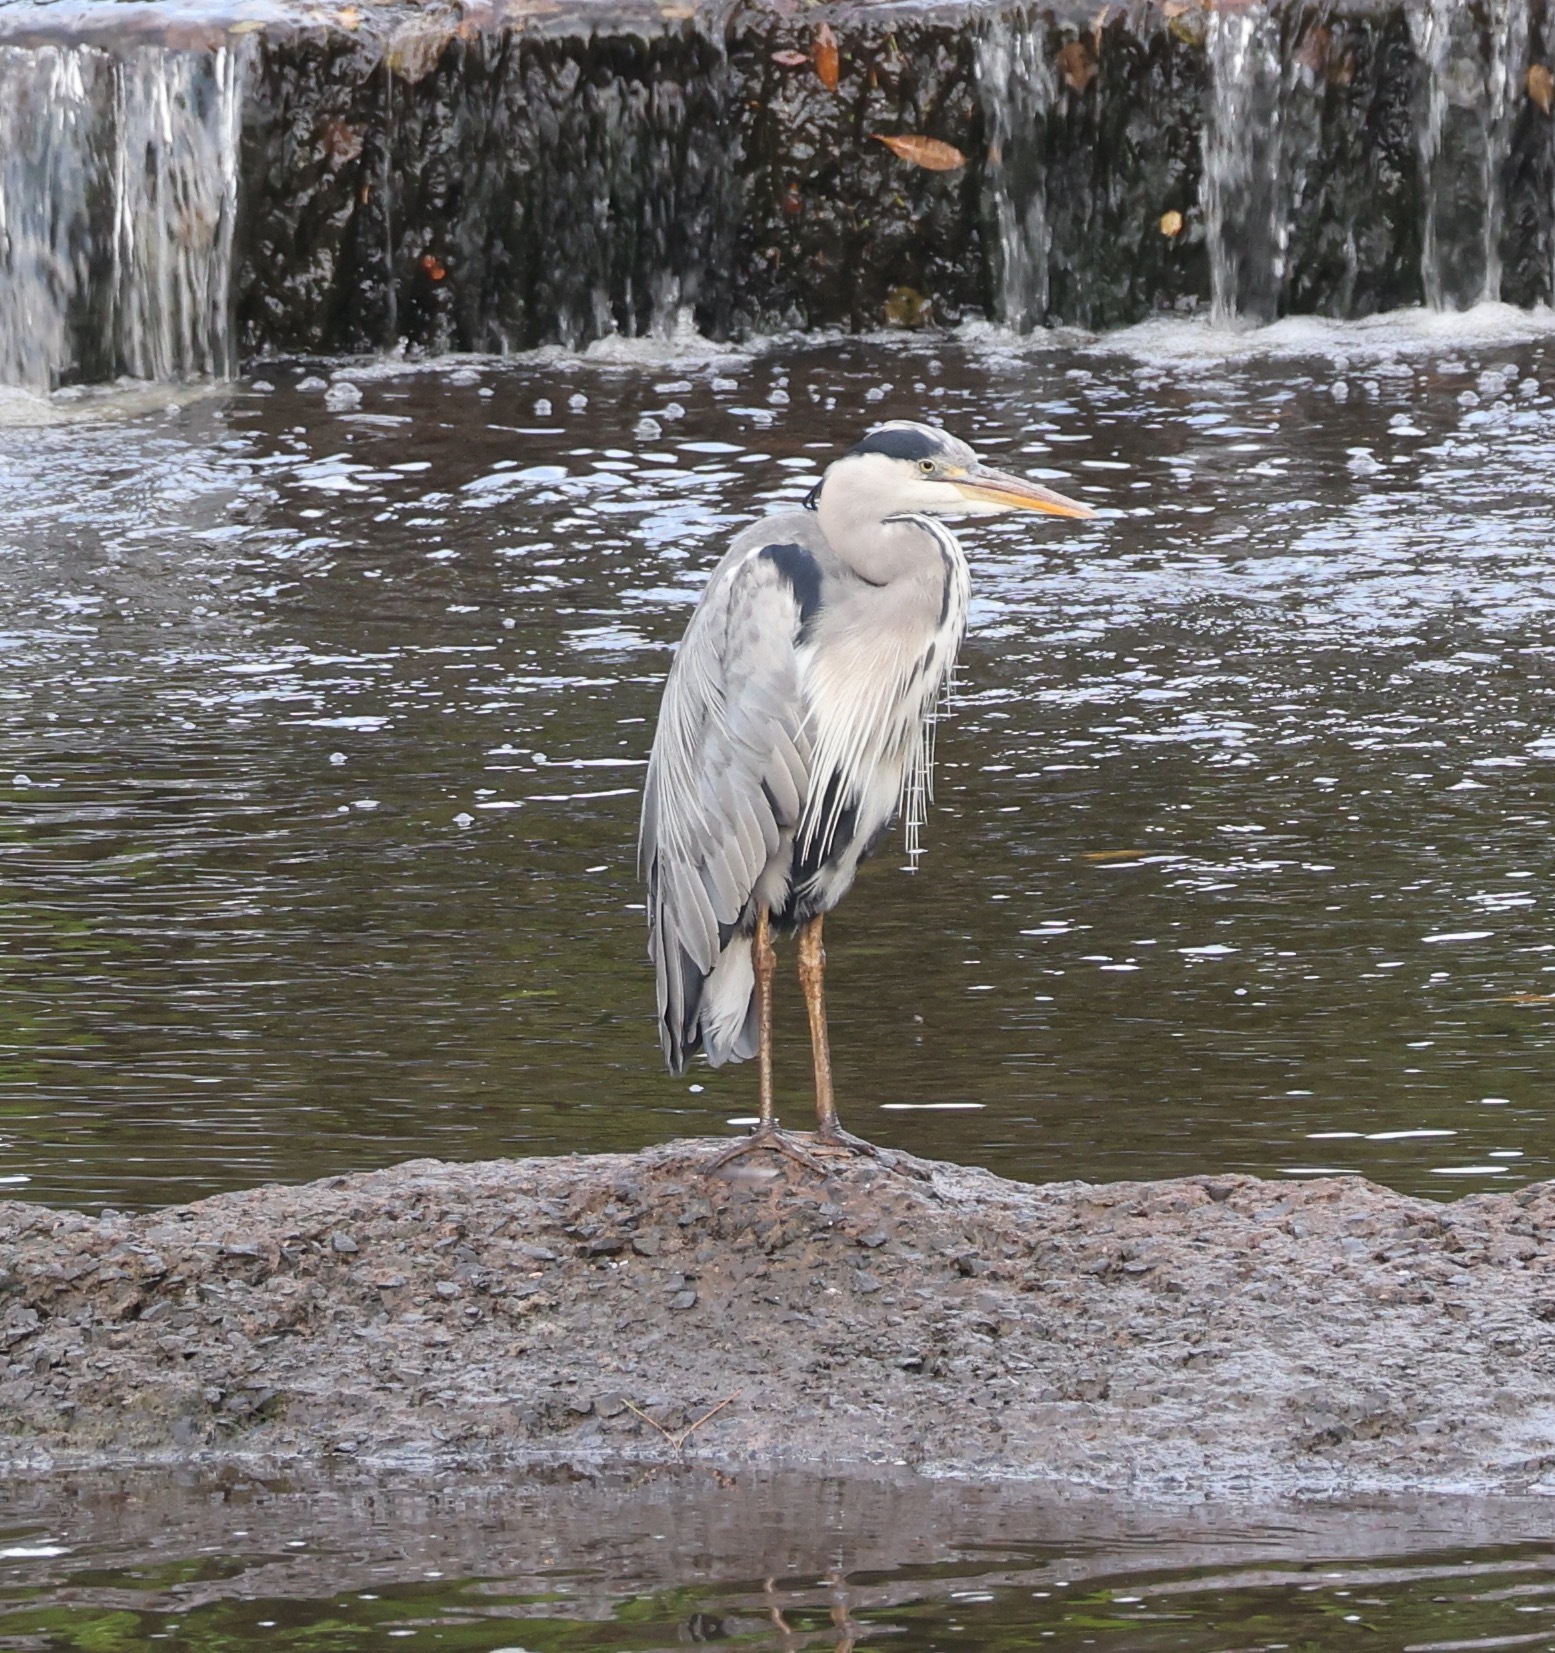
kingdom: Animalia
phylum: Chordata
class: Aves
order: Pelecaniformes
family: Ardeidae
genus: Ardea
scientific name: Ardea cinerea
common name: Grey heron
